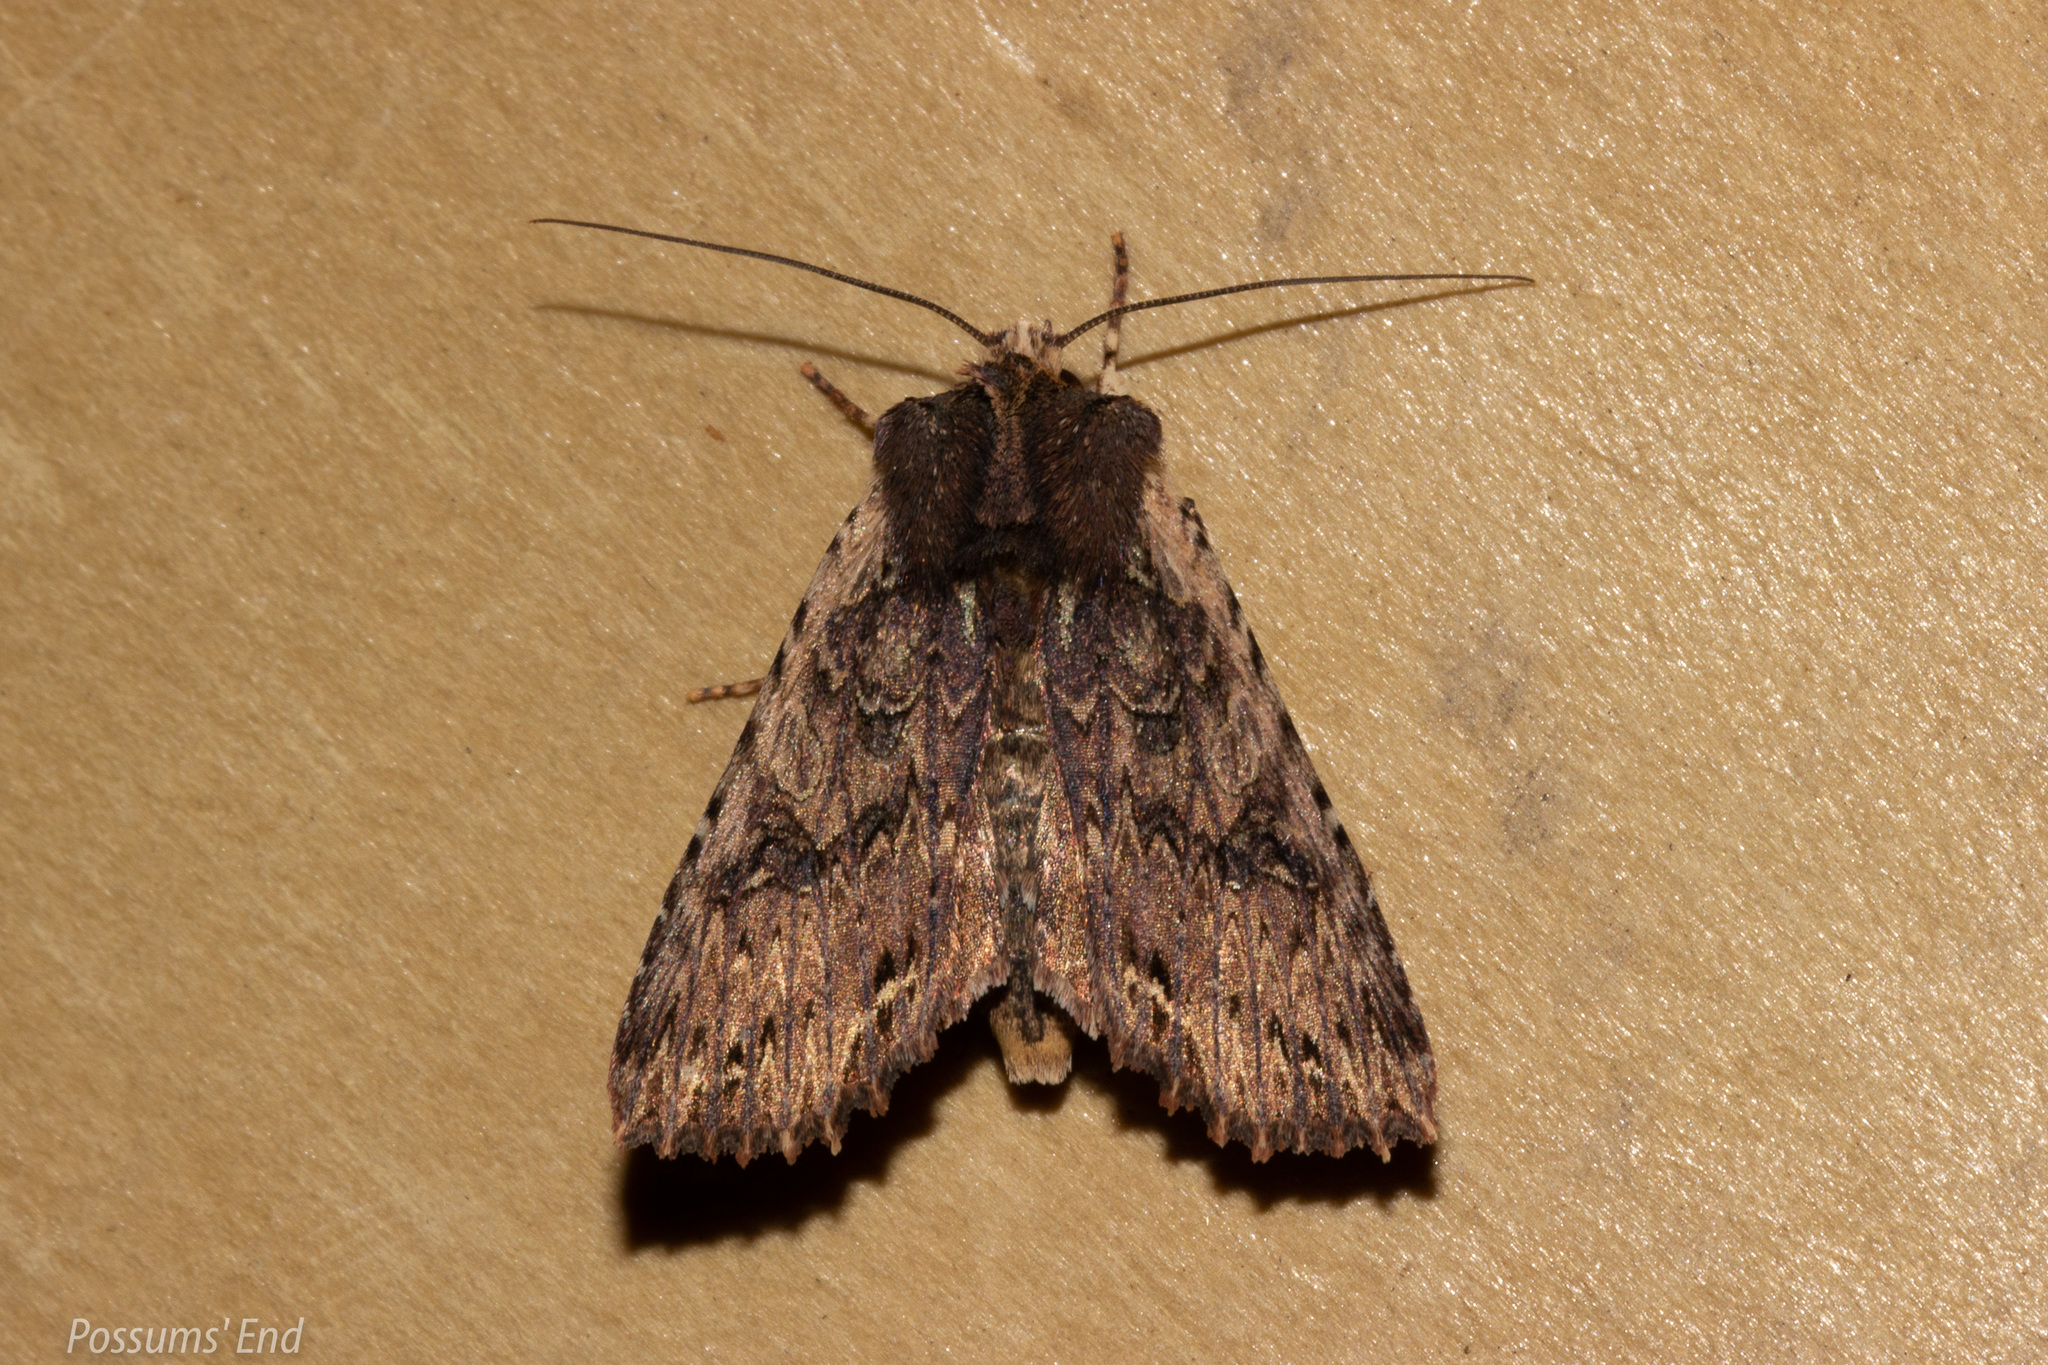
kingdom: Animalia
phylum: Arthropoda
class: Insecta
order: Lepidoptera
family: Noctuidae
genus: Meterana
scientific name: Meterana alcyone
